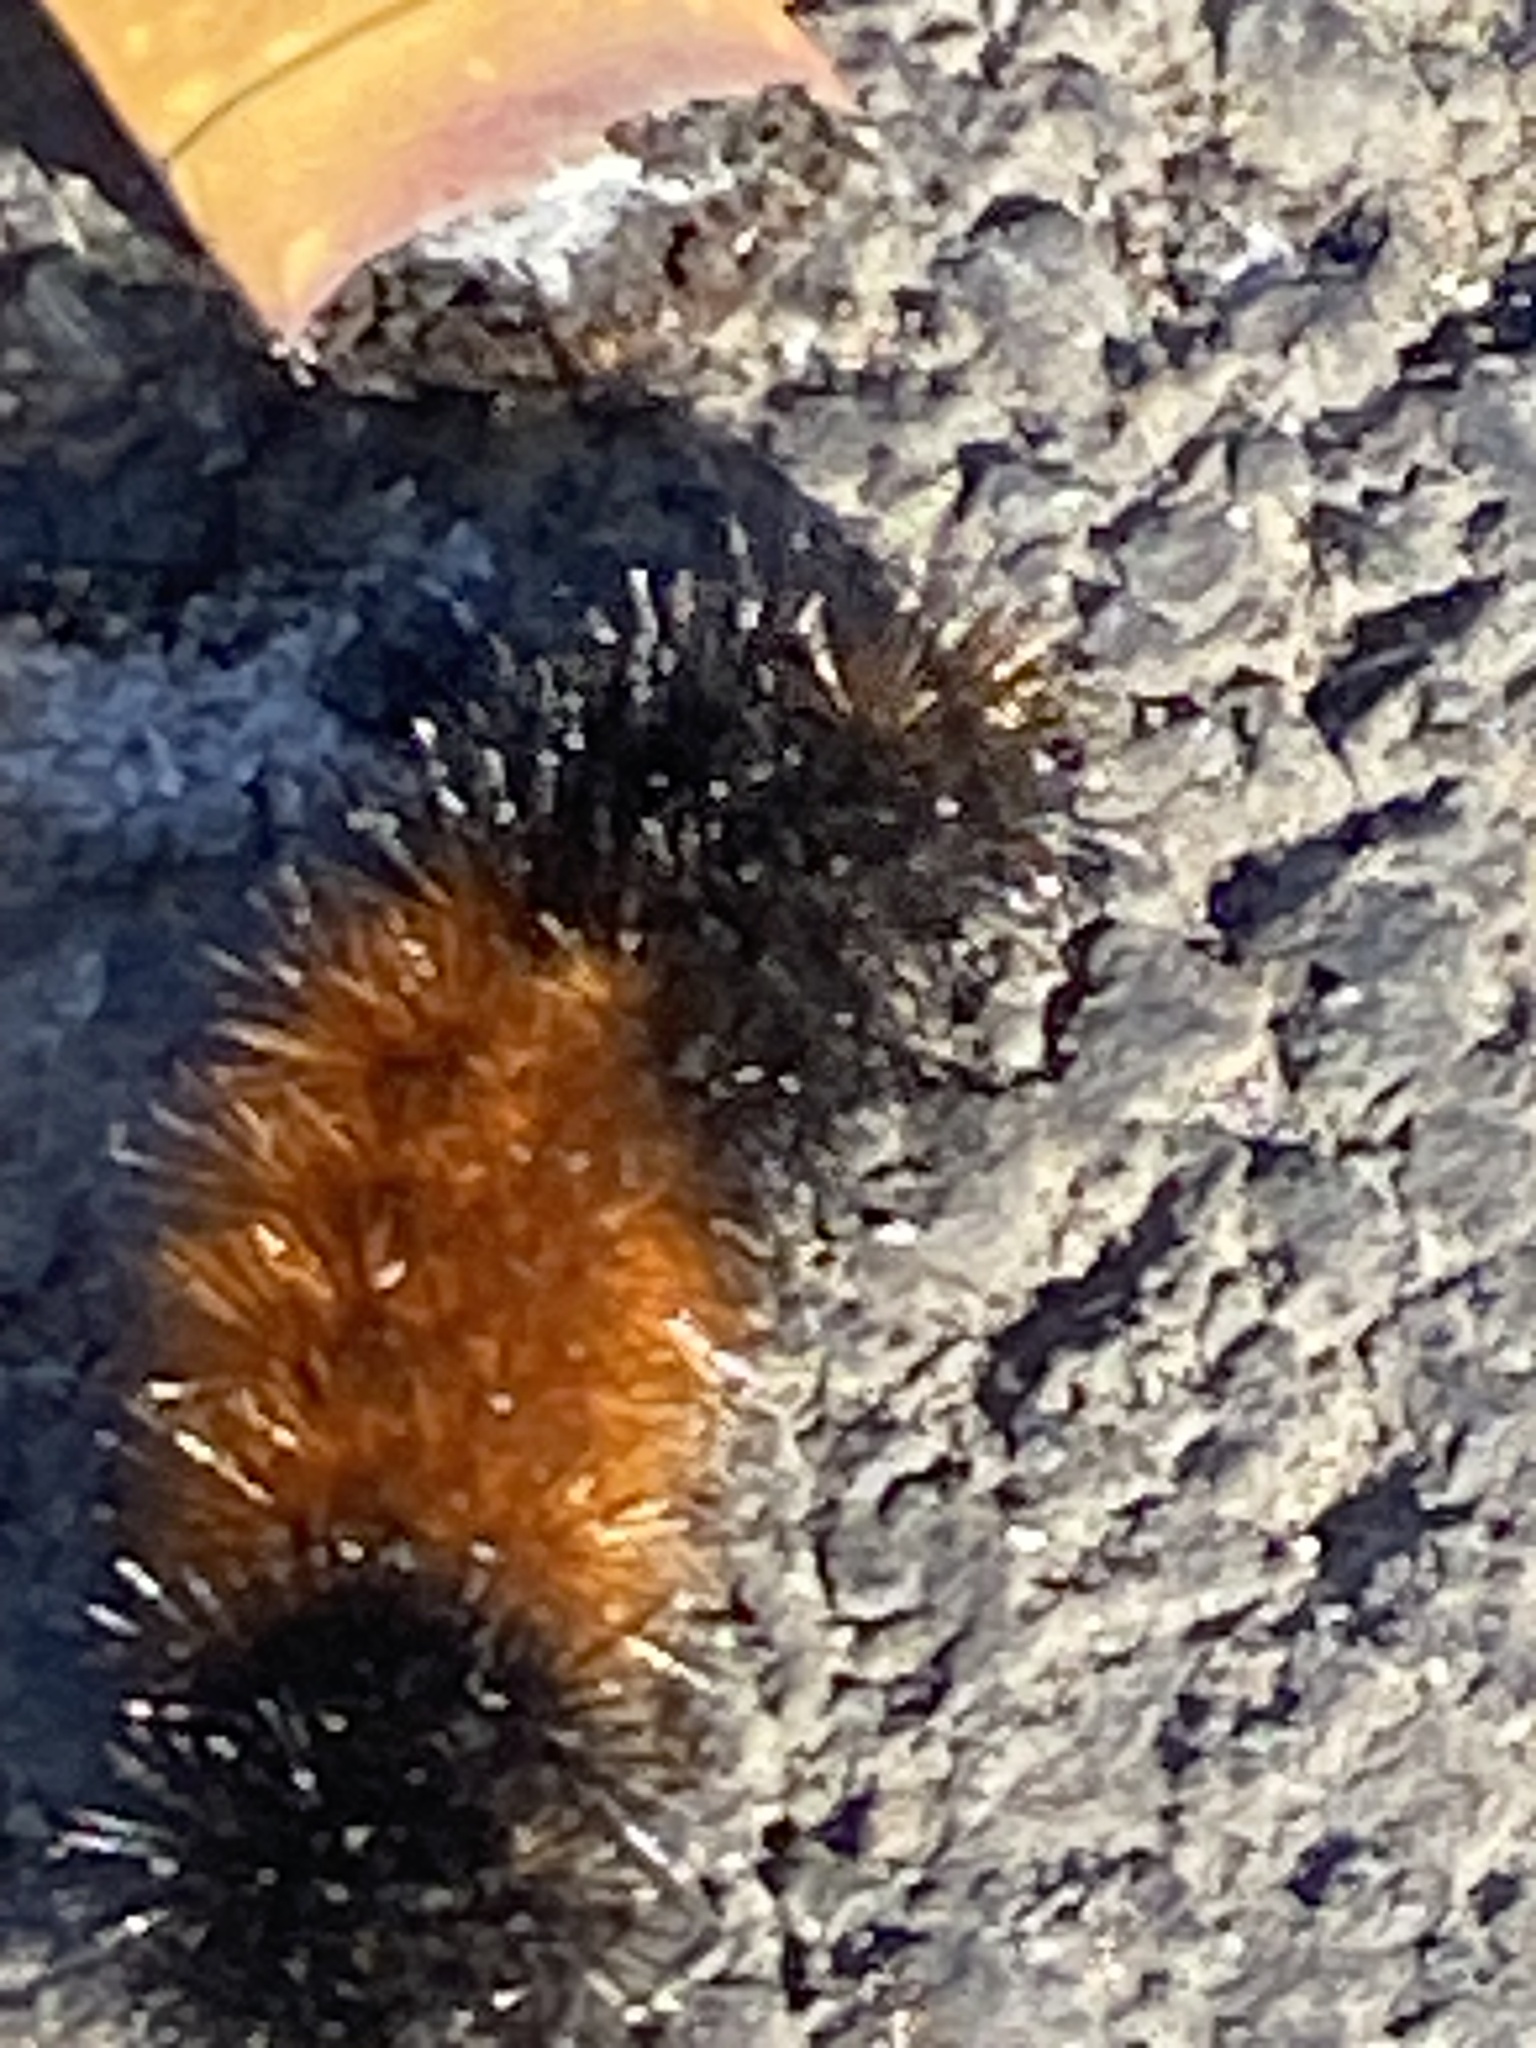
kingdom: Animalia
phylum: Arthropoda
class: Insecta
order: Lepidoptera
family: Erebidae
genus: Pyrrharctia
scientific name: Pyrrharctia isabella
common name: Isabella tiger moth
